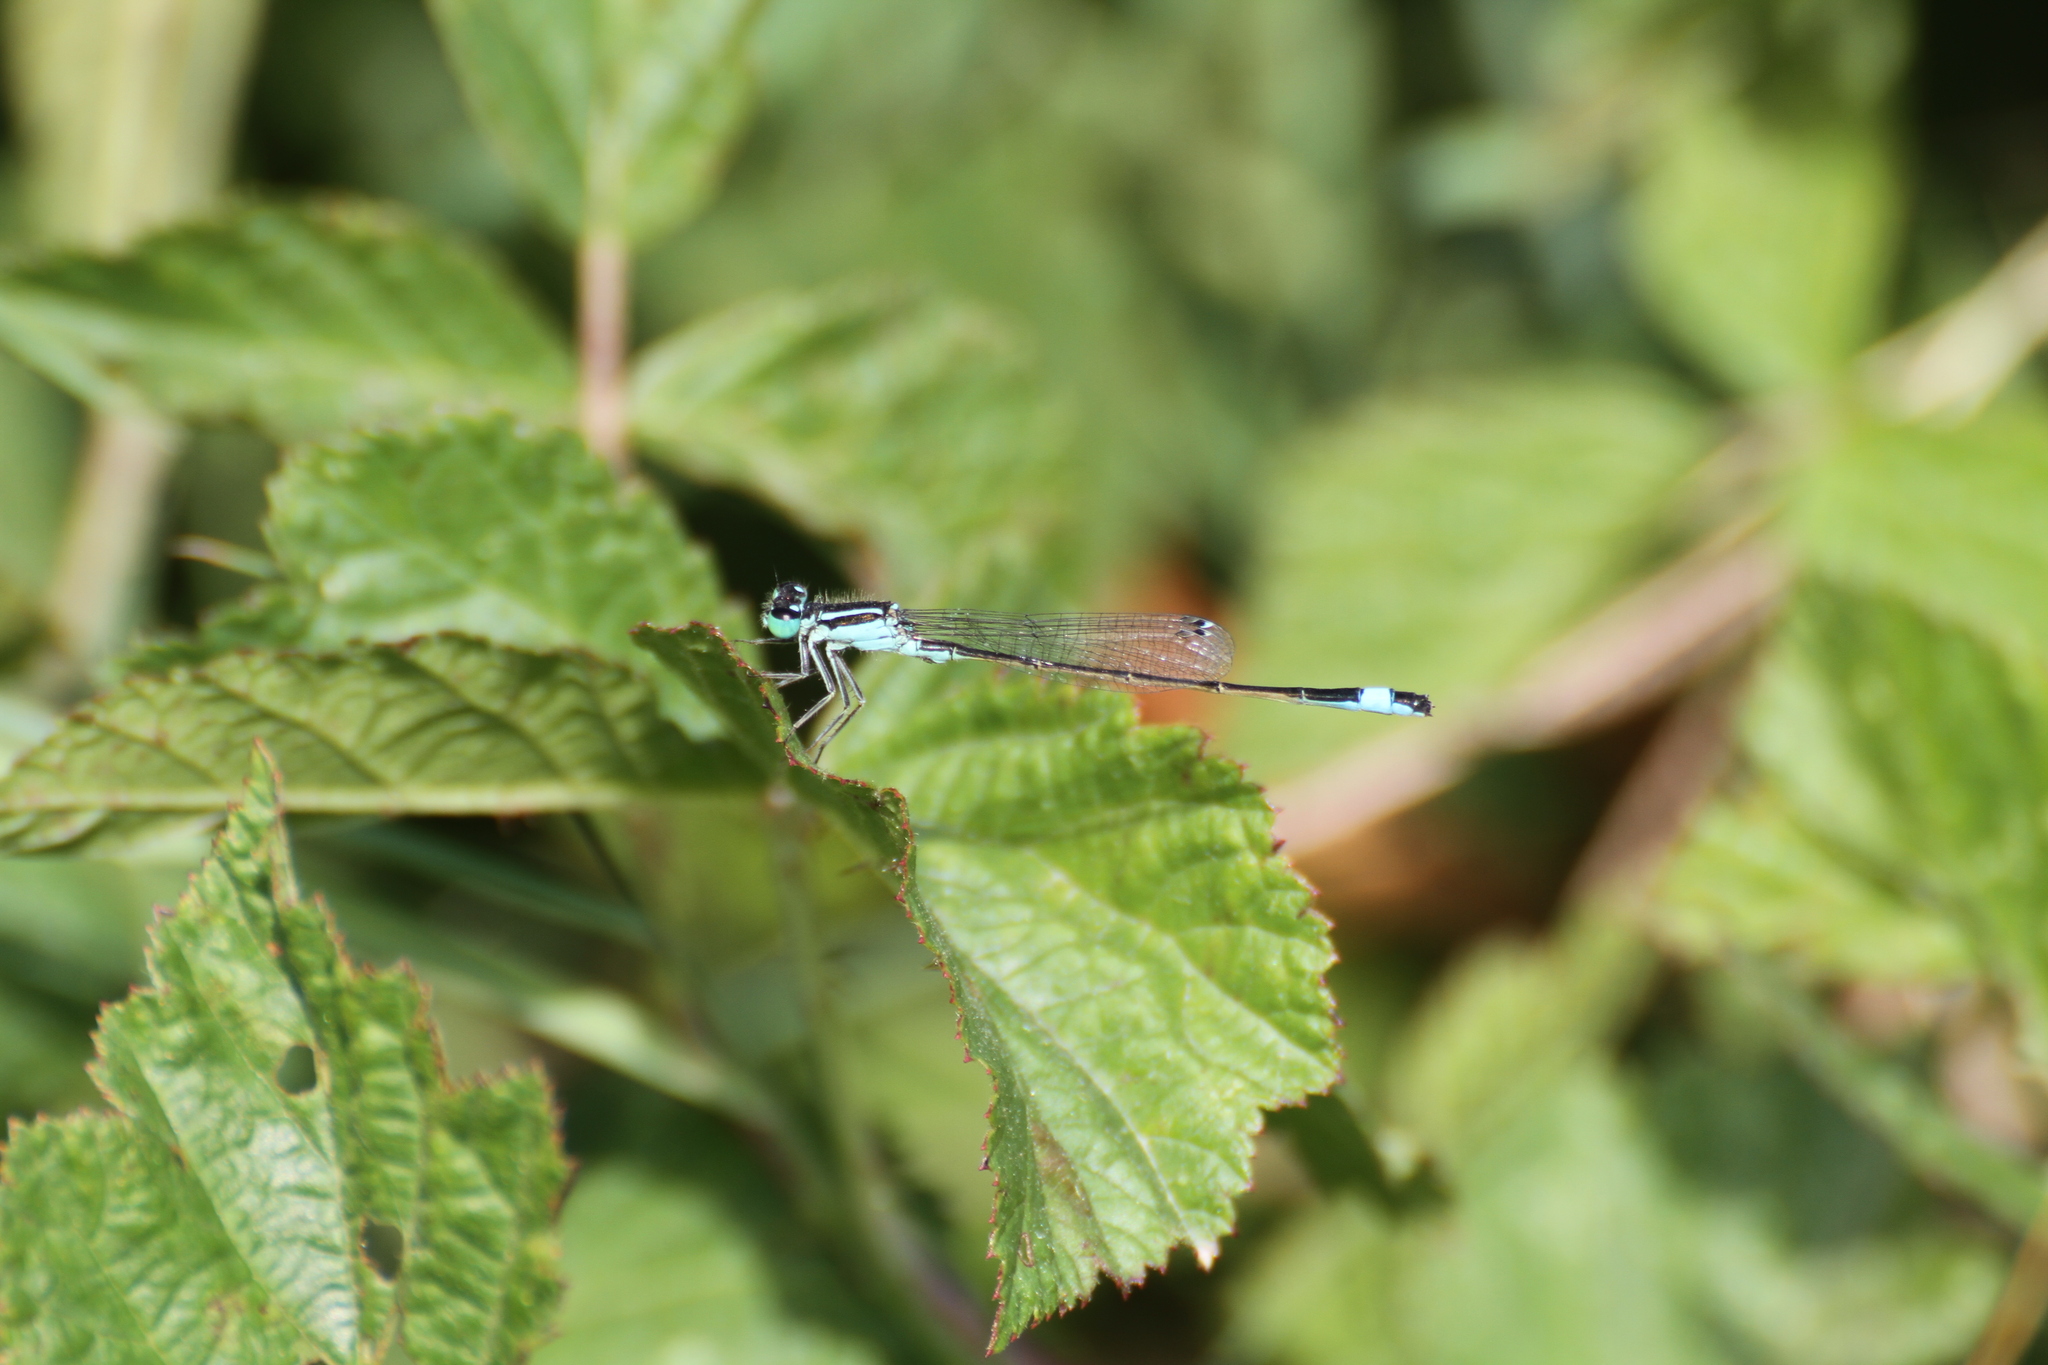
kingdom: Animalia
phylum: Arthropoda
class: Insecta
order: Odonata
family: Coenagrionidae
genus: Ischnura
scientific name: Ischnura elegans
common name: Blue-tailed damselfly
